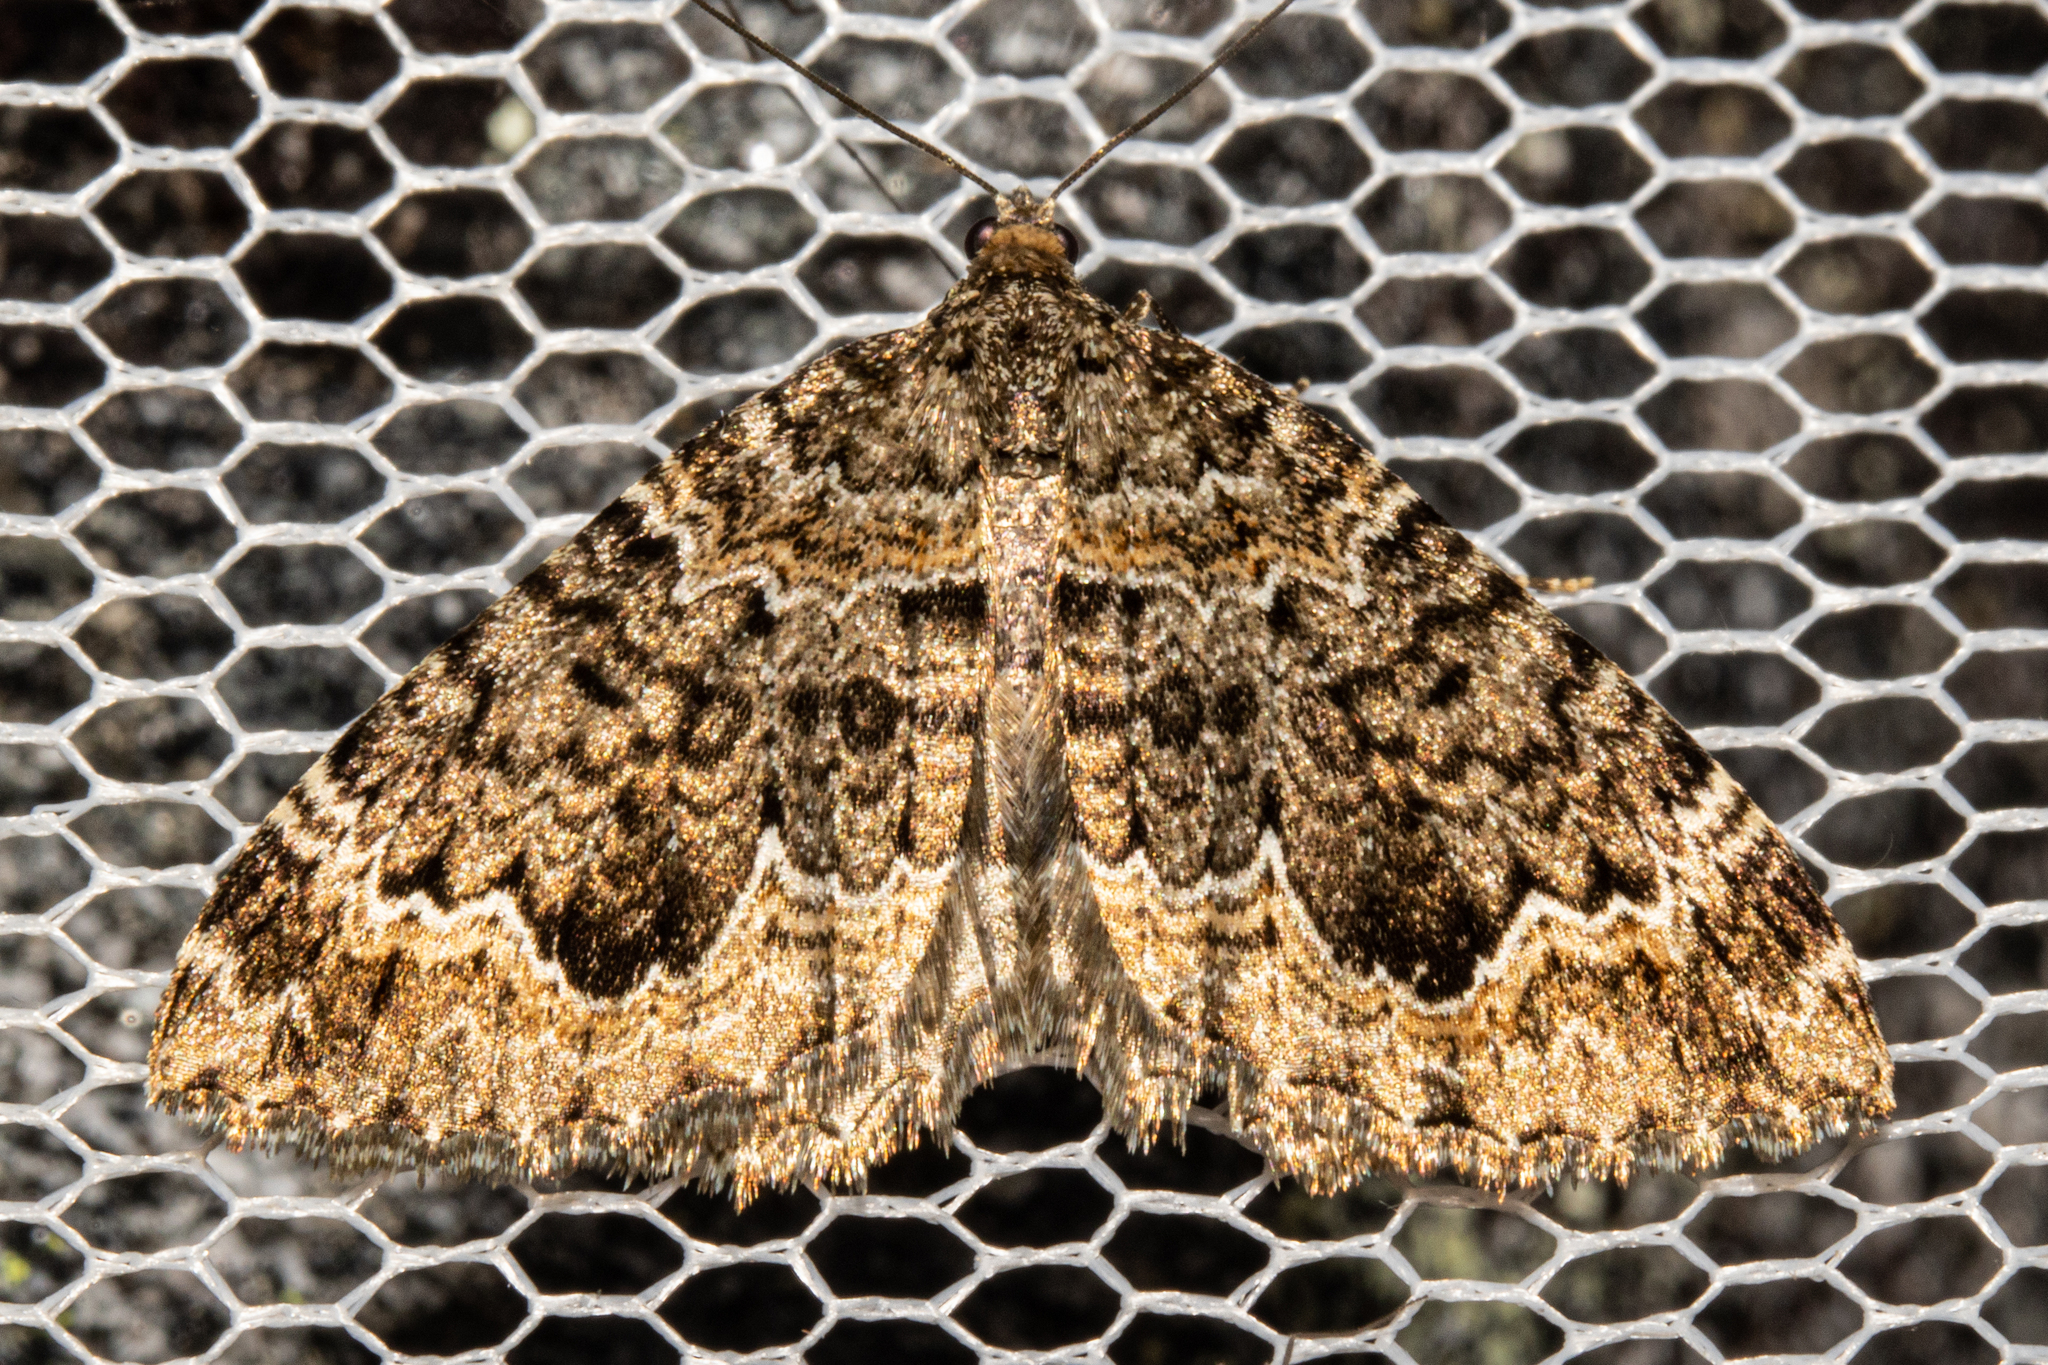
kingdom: Animalia
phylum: Arthropoda
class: Insecta
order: Lepidoptera
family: Geometridae
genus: Hydriomena
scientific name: Hydriomena hemizona
